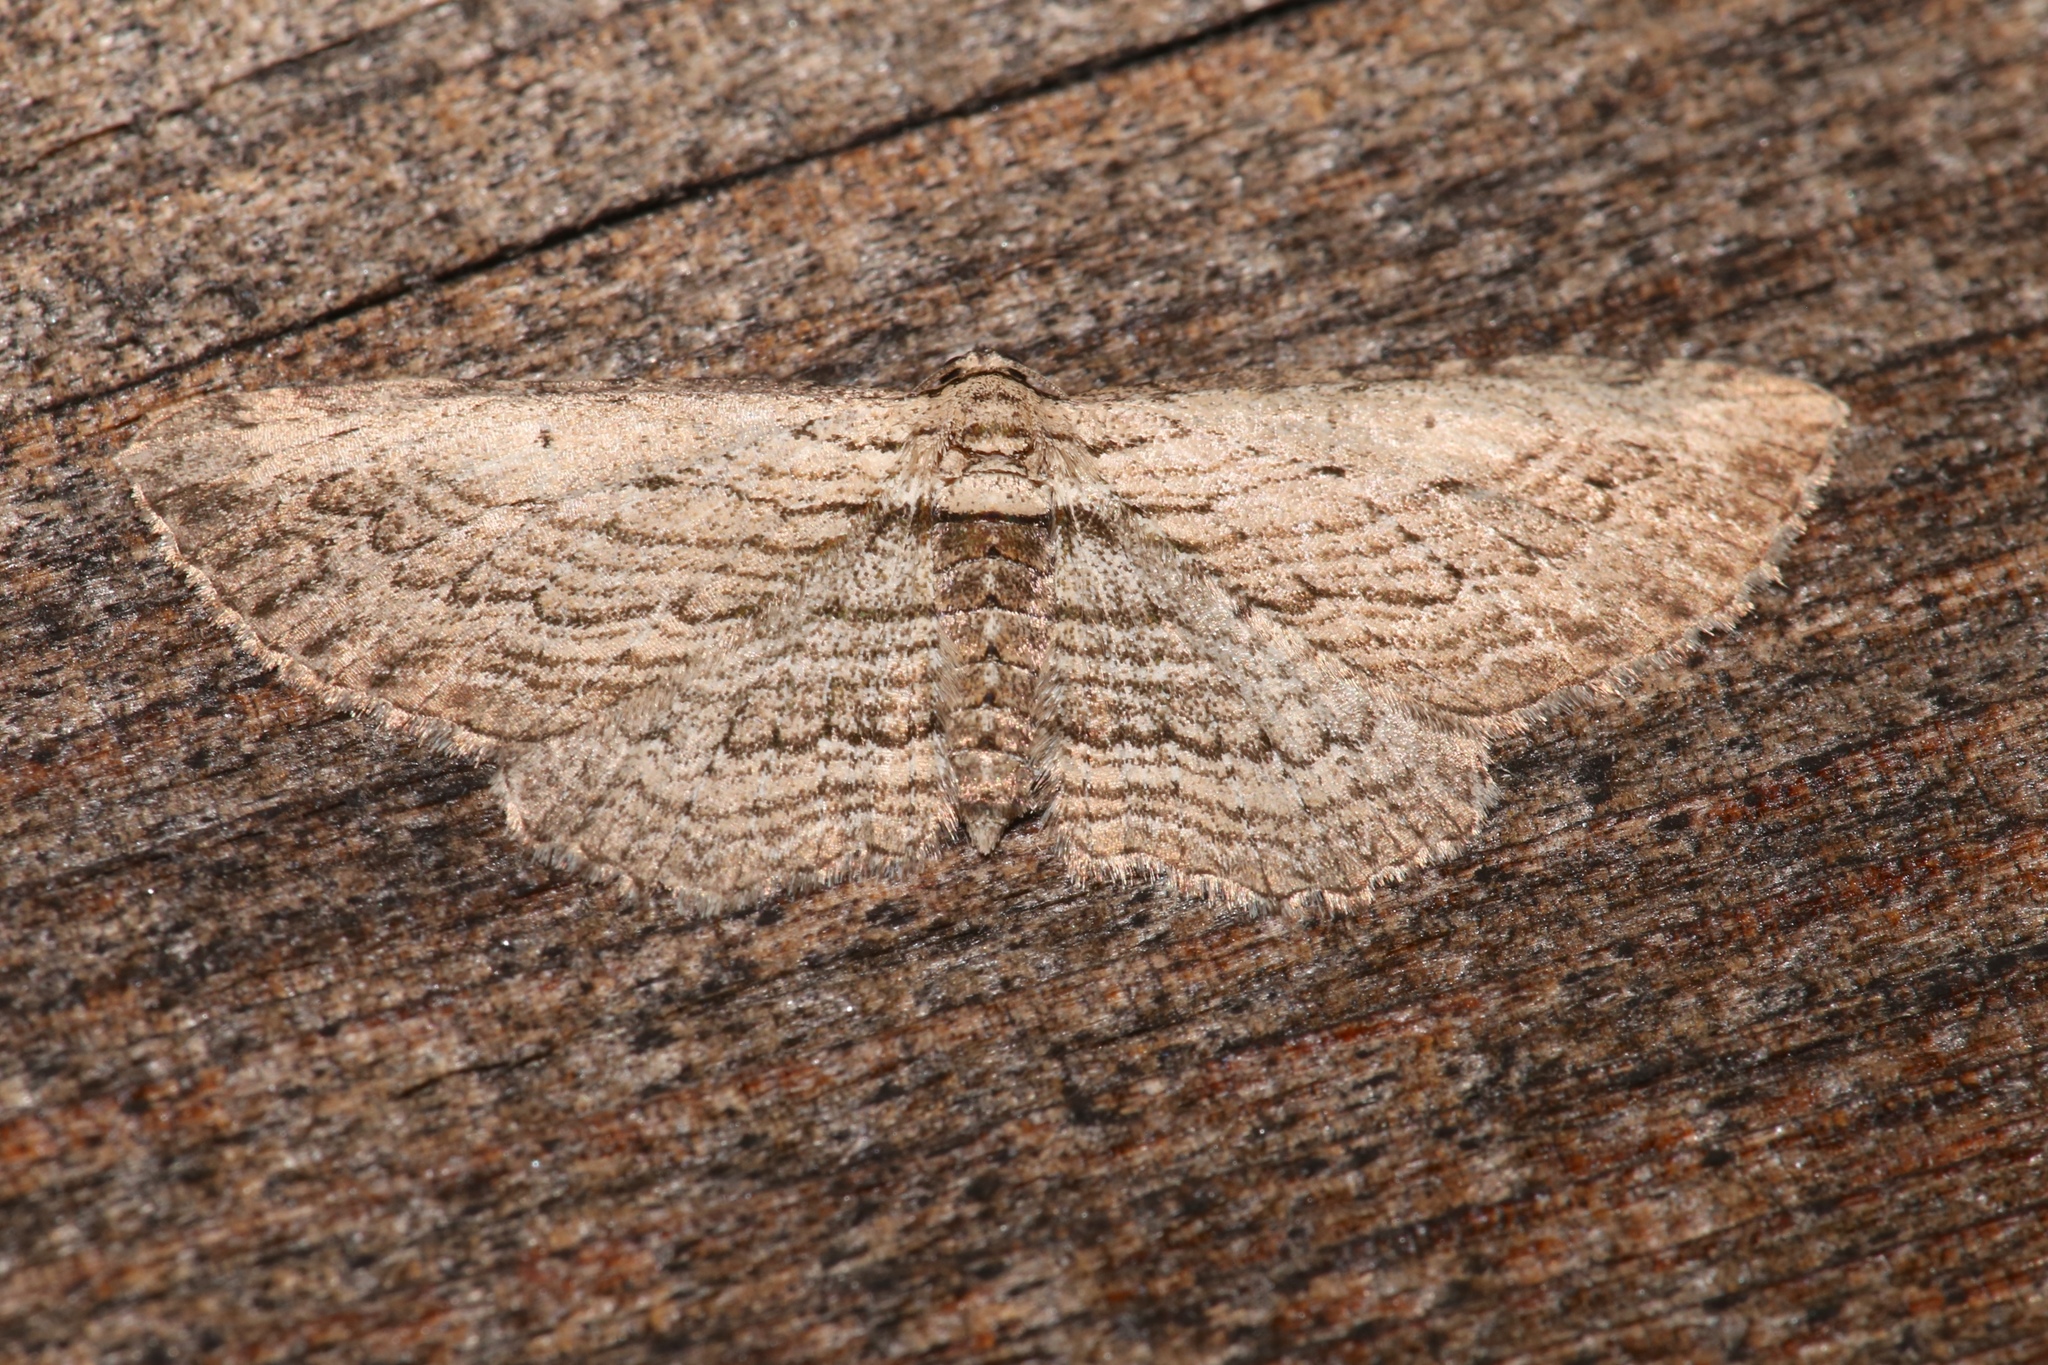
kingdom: Animalia
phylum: Arthropoda
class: Insecta
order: Lepidoptera
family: Geometridae
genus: Horisme
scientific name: Horisme intestinata
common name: Brown bark carpet
